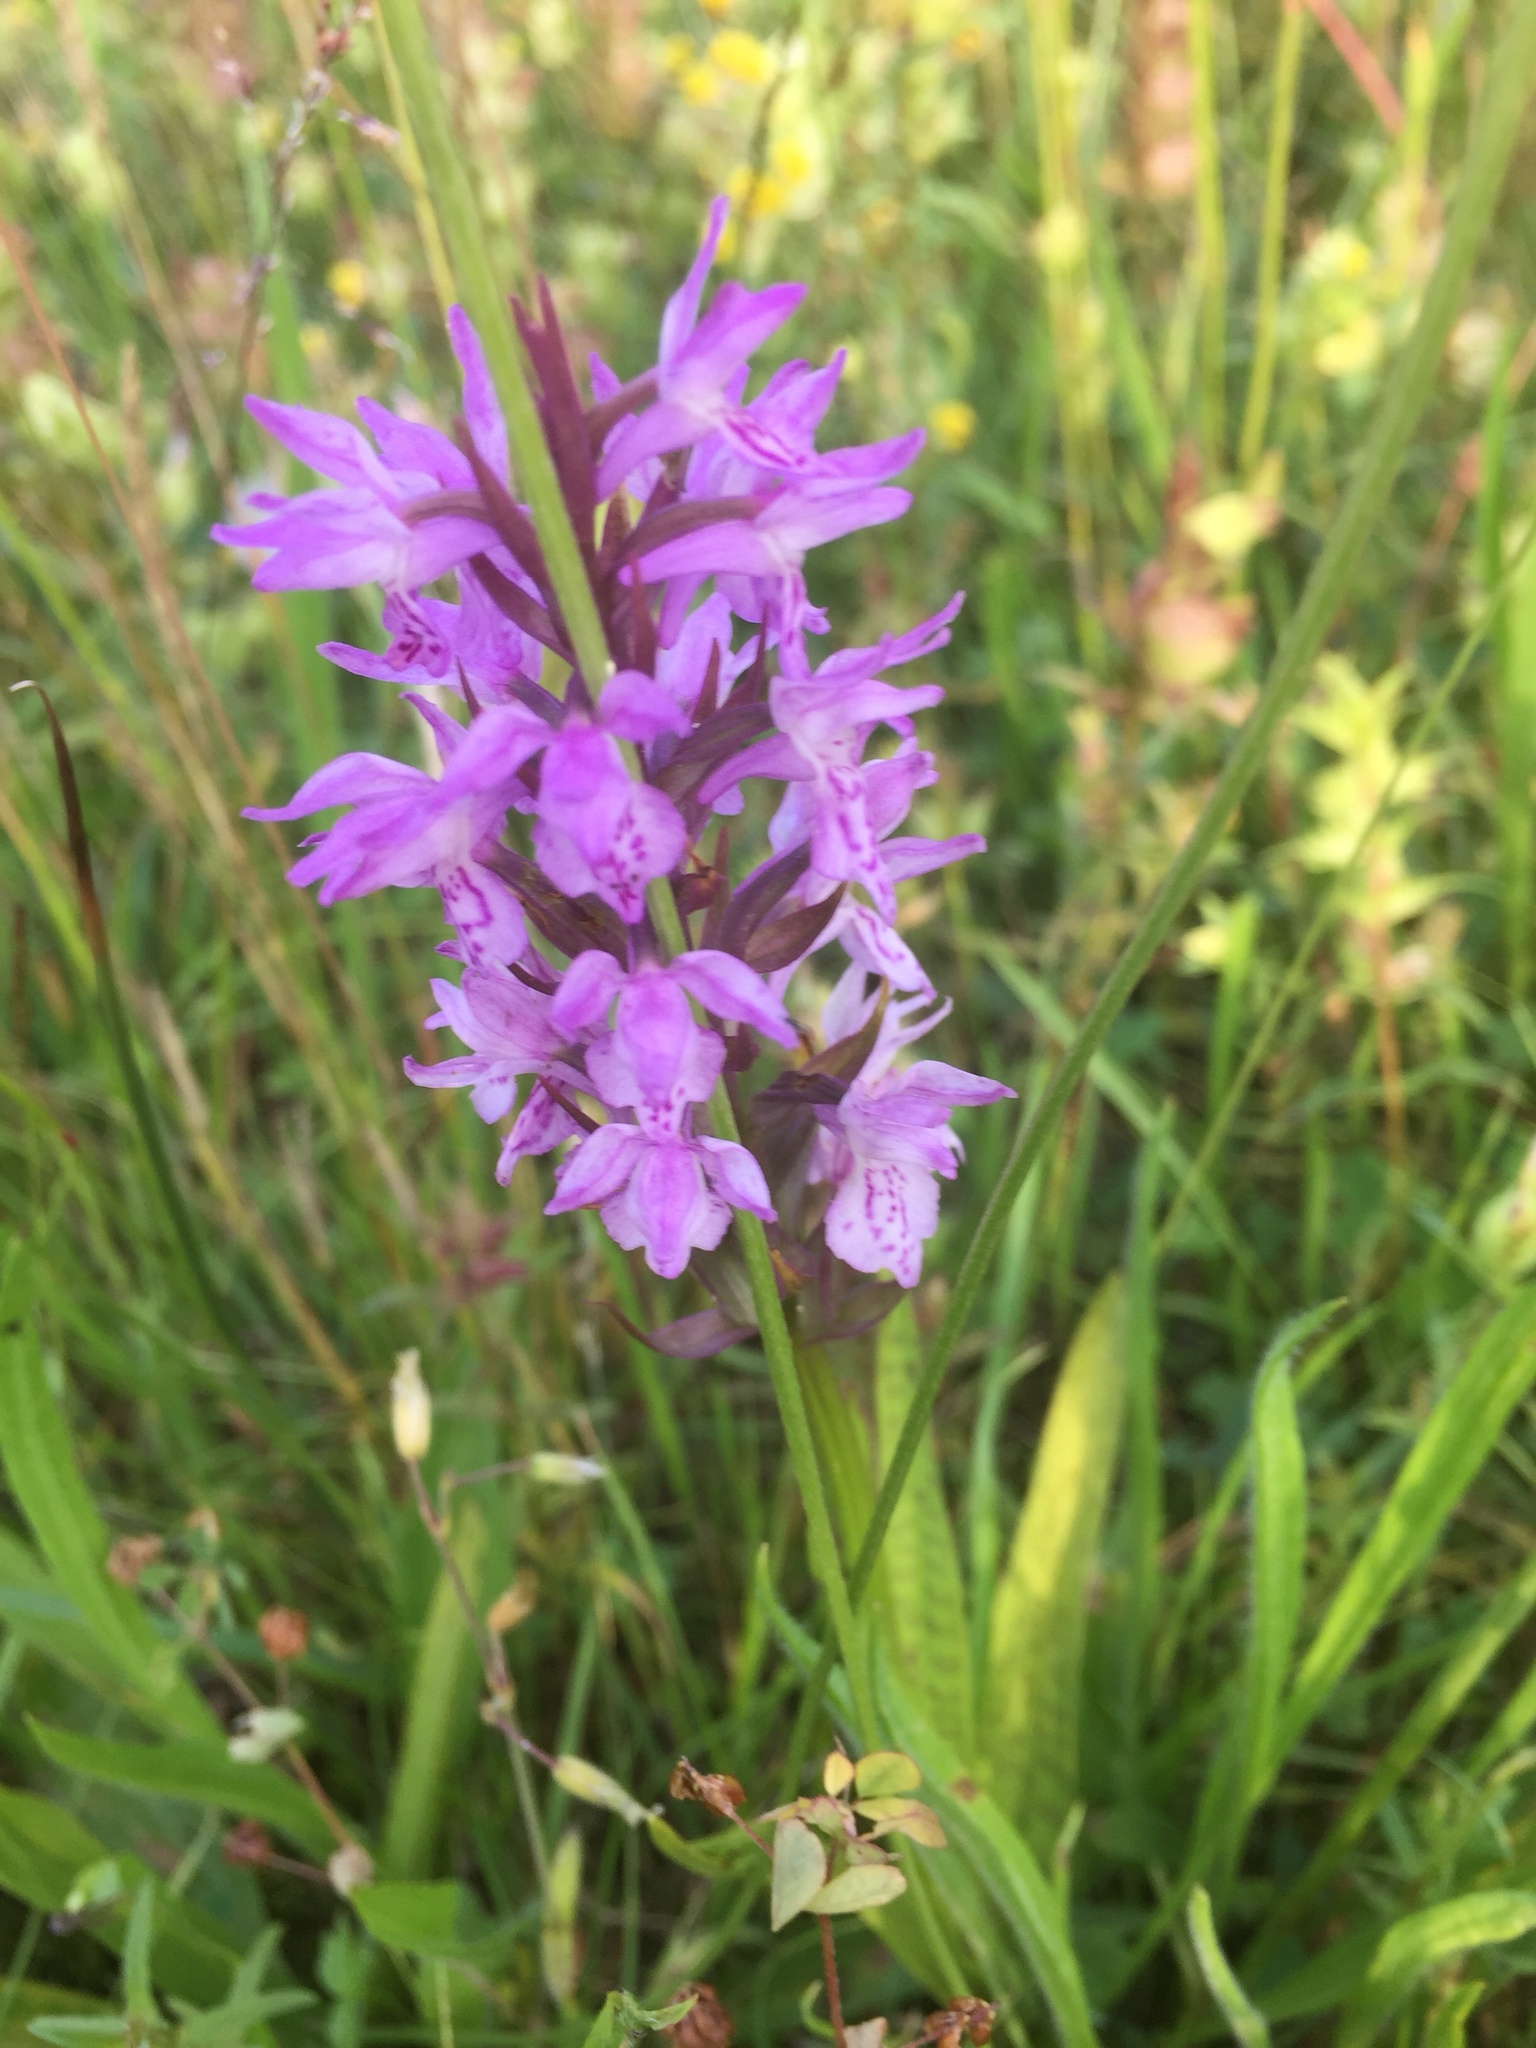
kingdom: Plantae
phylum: Tracheophyta
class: Liliopsida
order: Asparagales
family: Orchidaceae
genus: Dactylorhiza
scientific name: Dactylorhiza majalis
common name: Marsh orchid
